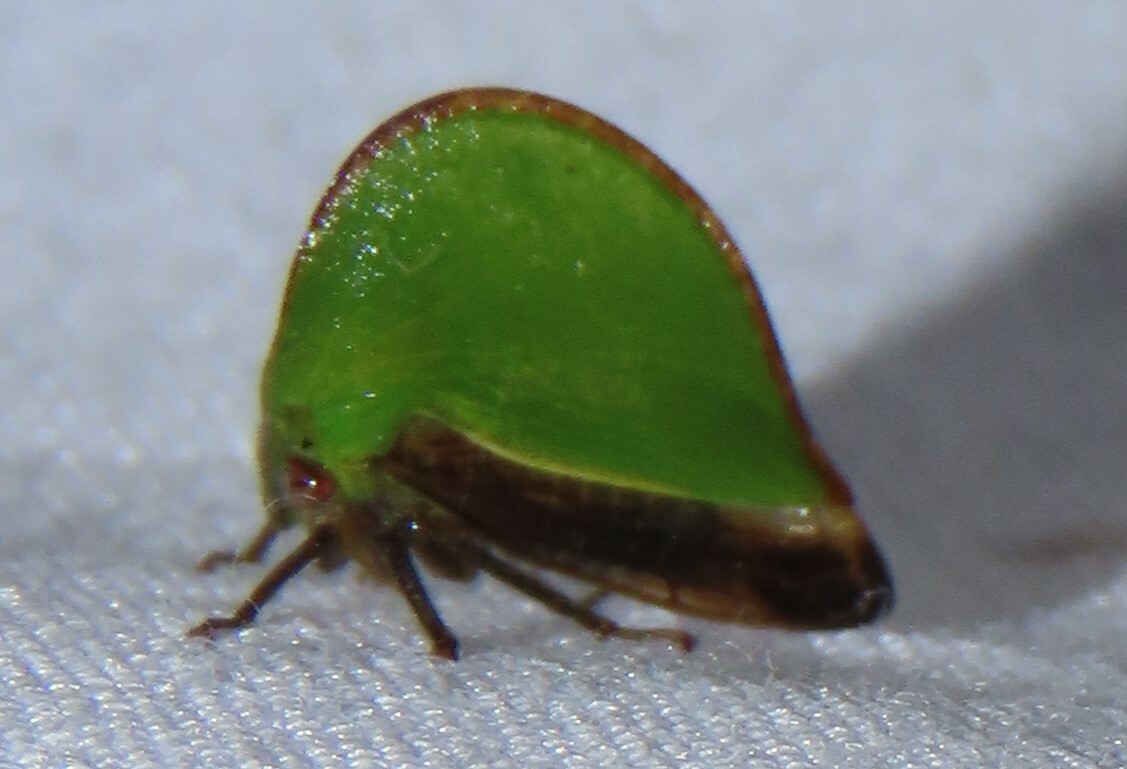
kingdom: Animalia
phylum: Arthropoda
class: Insecta
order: Hemiptera
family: Membracidae
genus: Archasia
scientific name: Archasia belfragei
